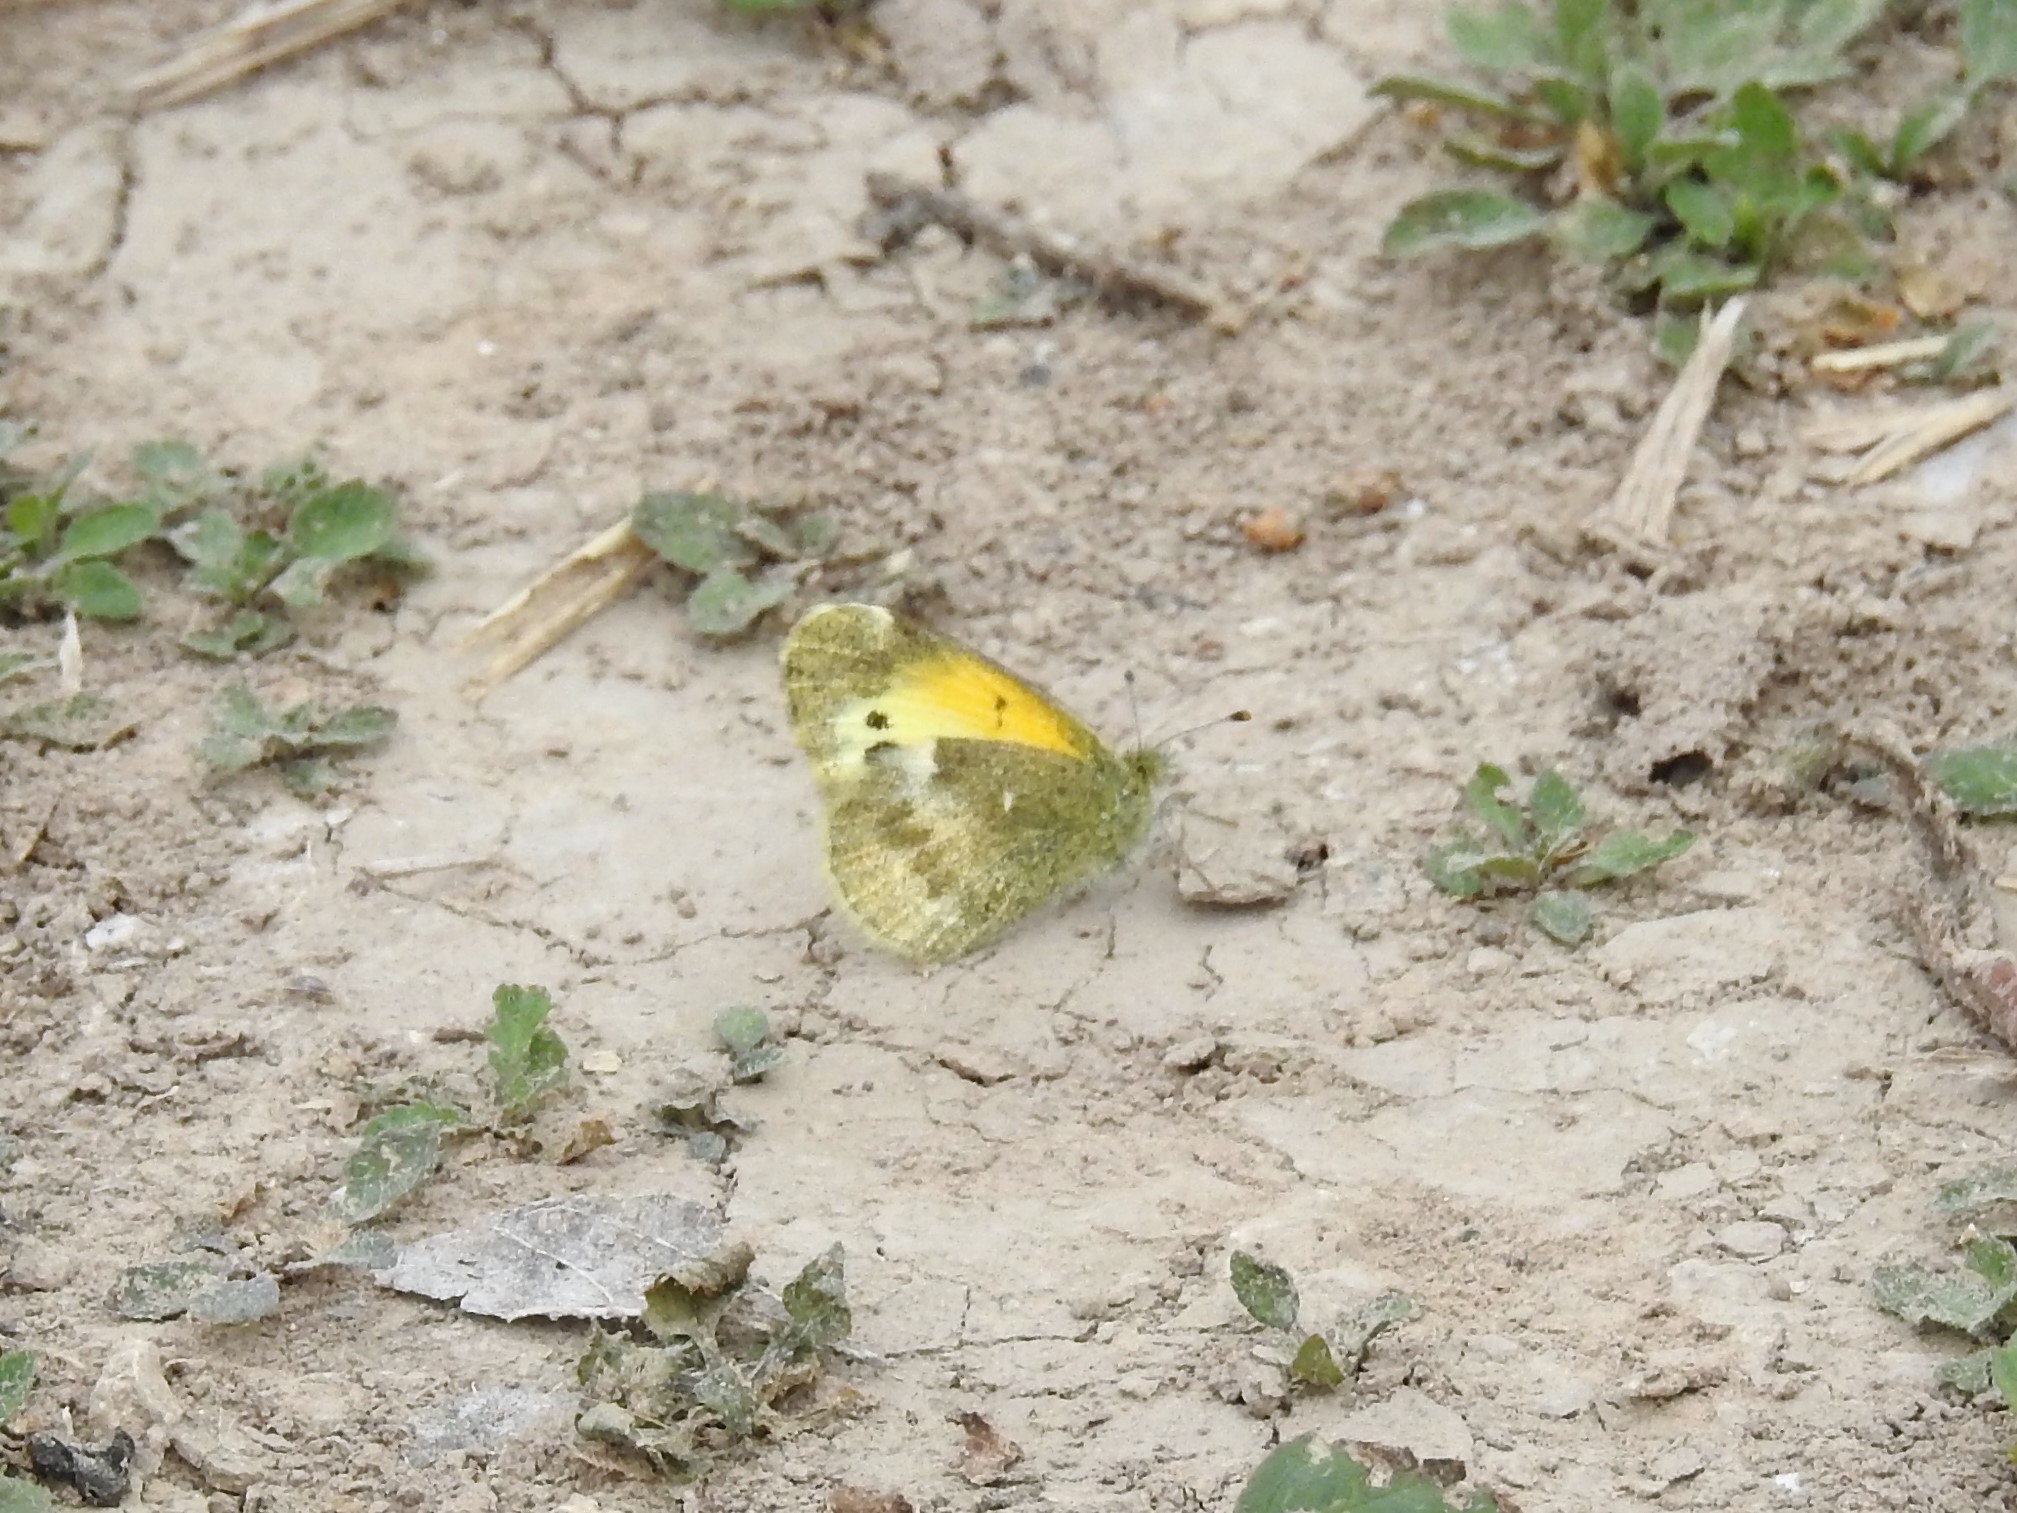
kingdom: Animalia
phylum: Arthropoda
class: Insecta
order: Lepidoptera
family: Pieridae
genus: Nathalis
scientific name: Nathalis iole
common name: Dainty sulphur
